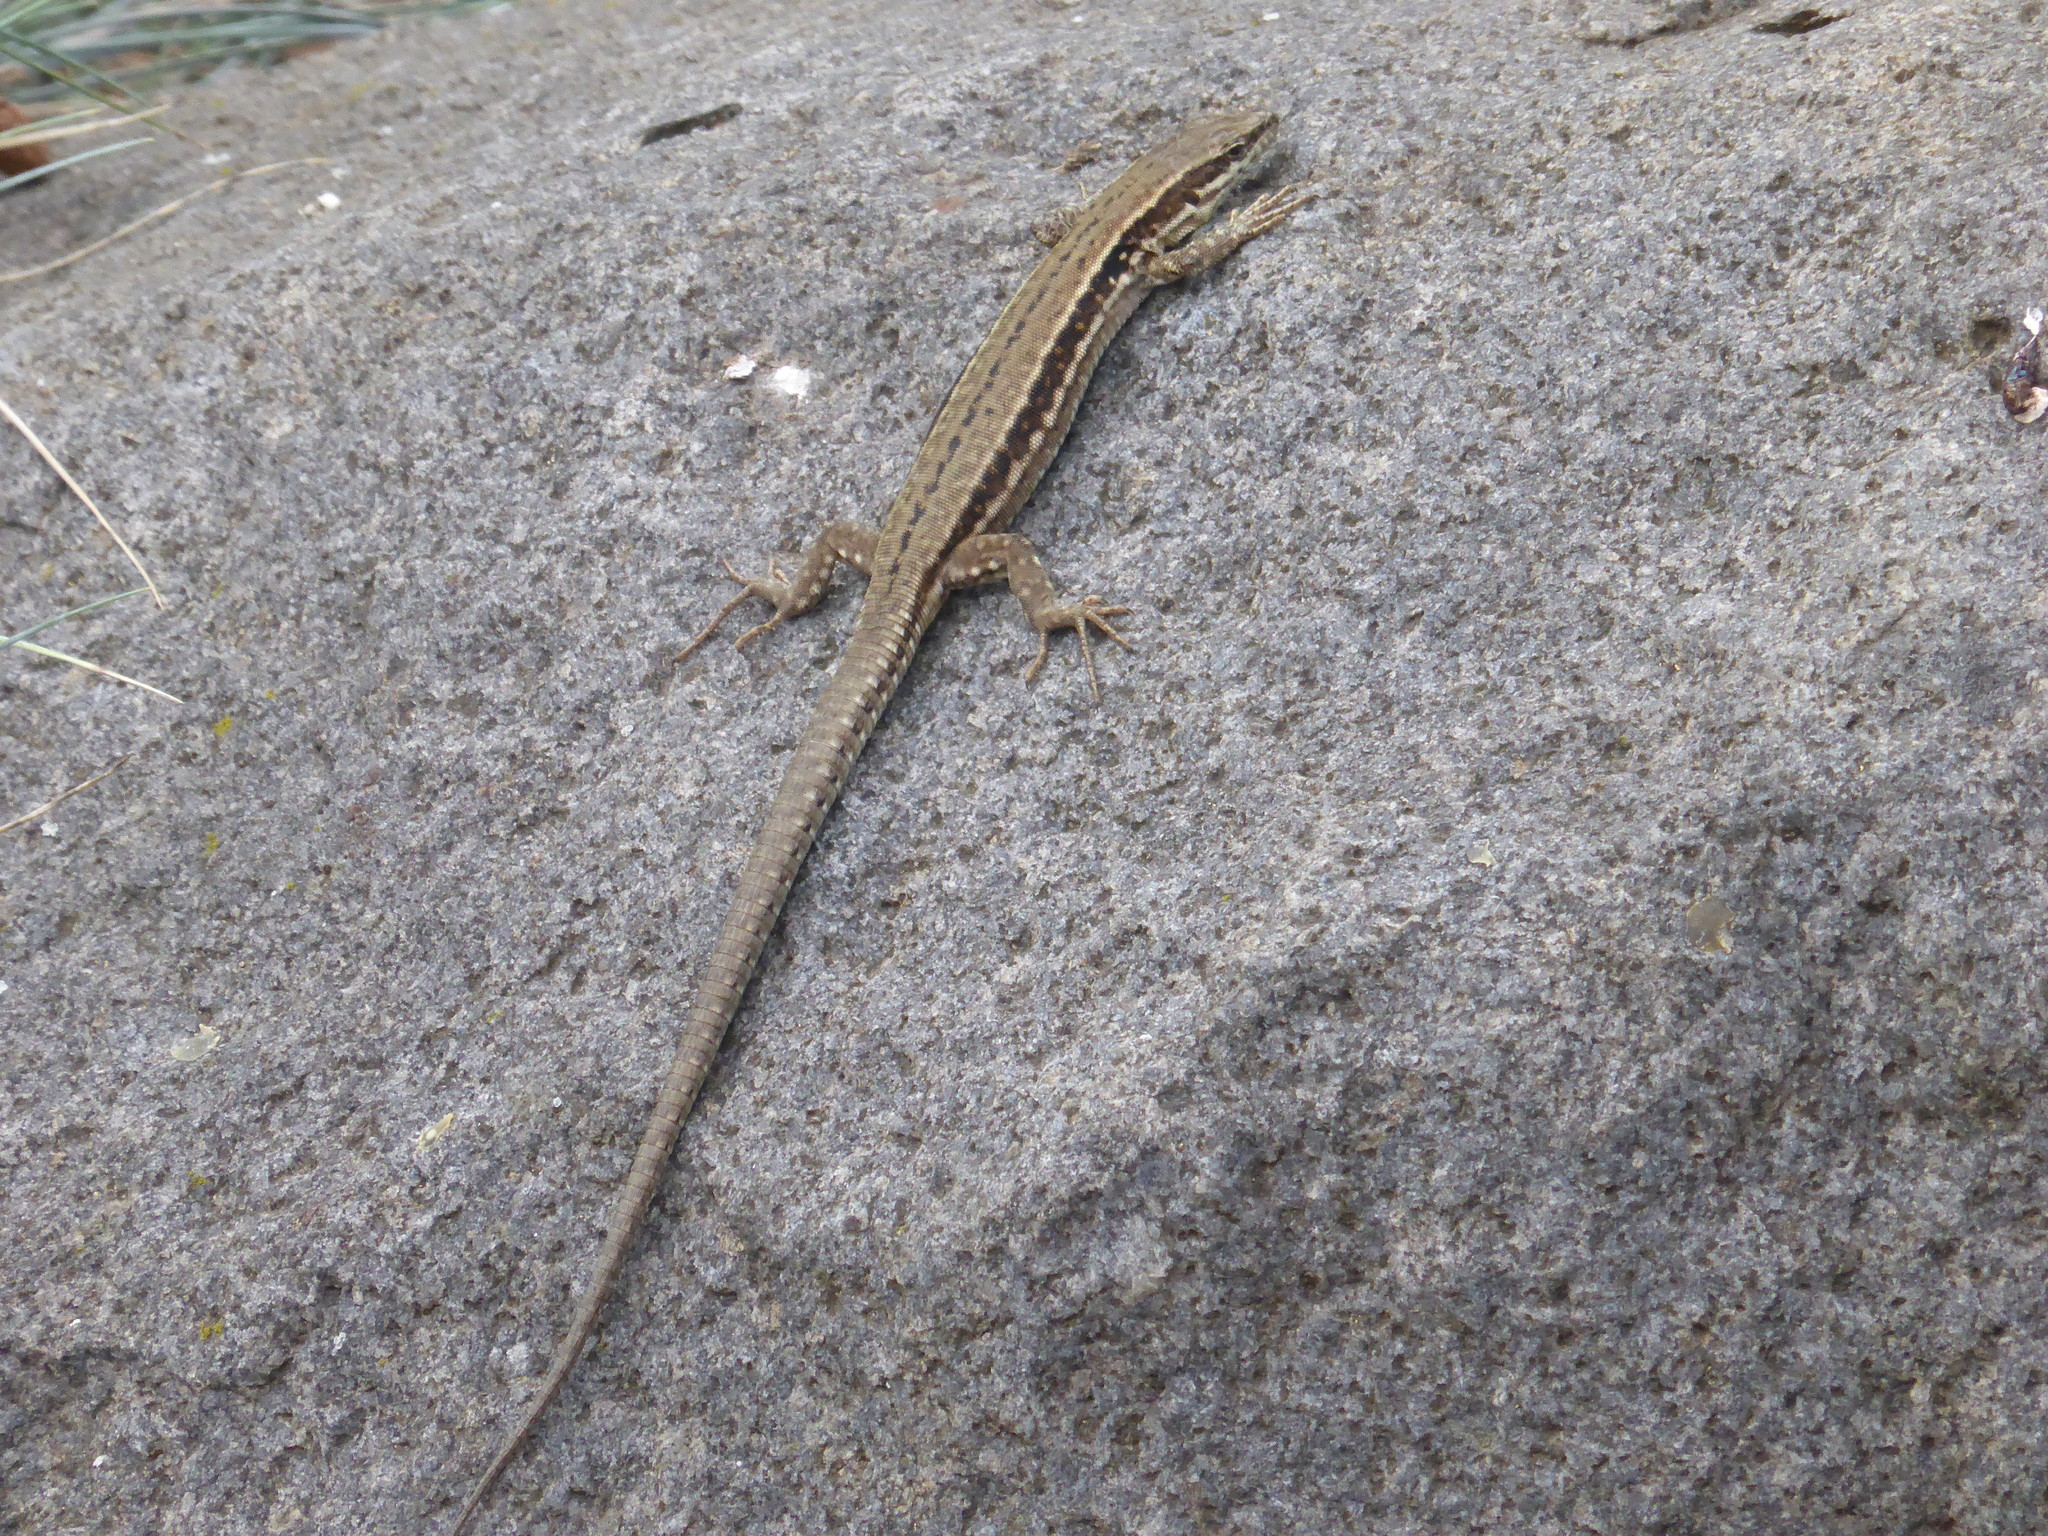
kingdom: Animalia
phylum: Chordata
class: Squamata
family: Lacertidae
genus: Podarcis
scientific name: Podarcis muralis
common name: Common wall lizard
